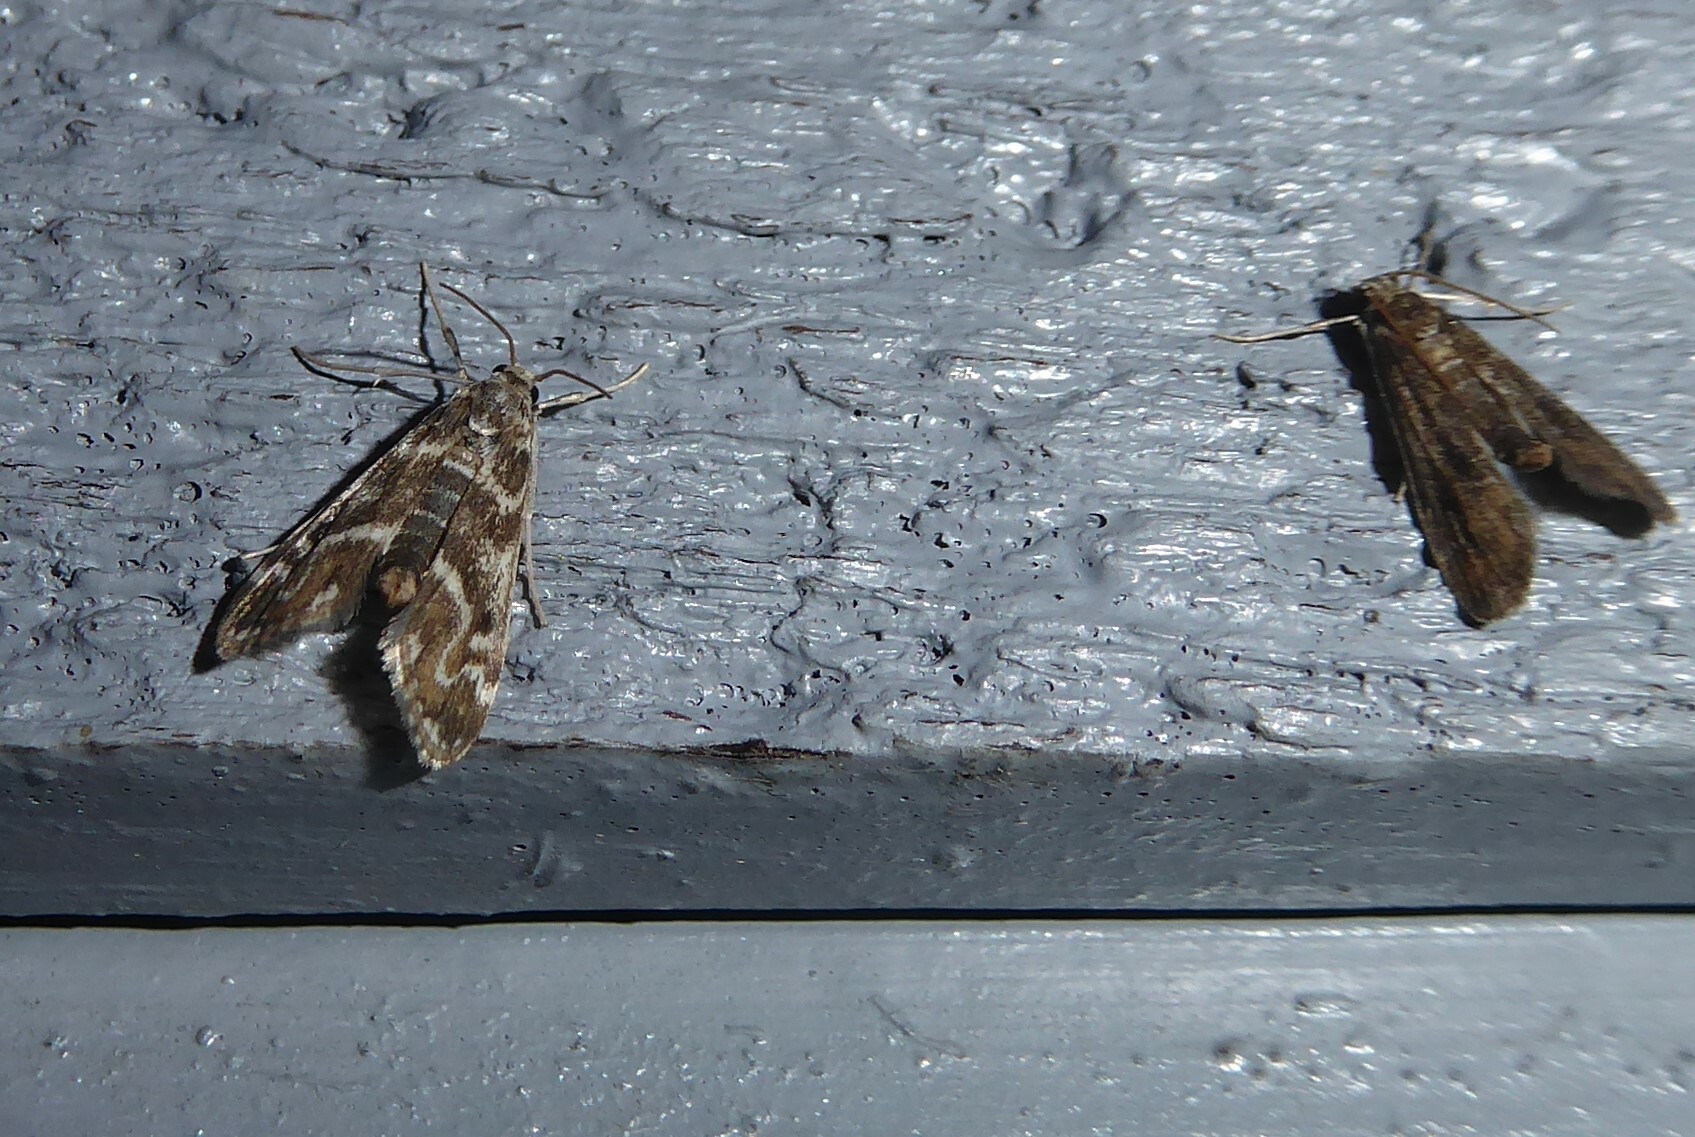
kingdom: Animalia
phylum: Arthropoda
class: Insecta
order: Lepidoptera
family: Crambidae
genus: Hygraula
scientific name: Hygraula nitens
